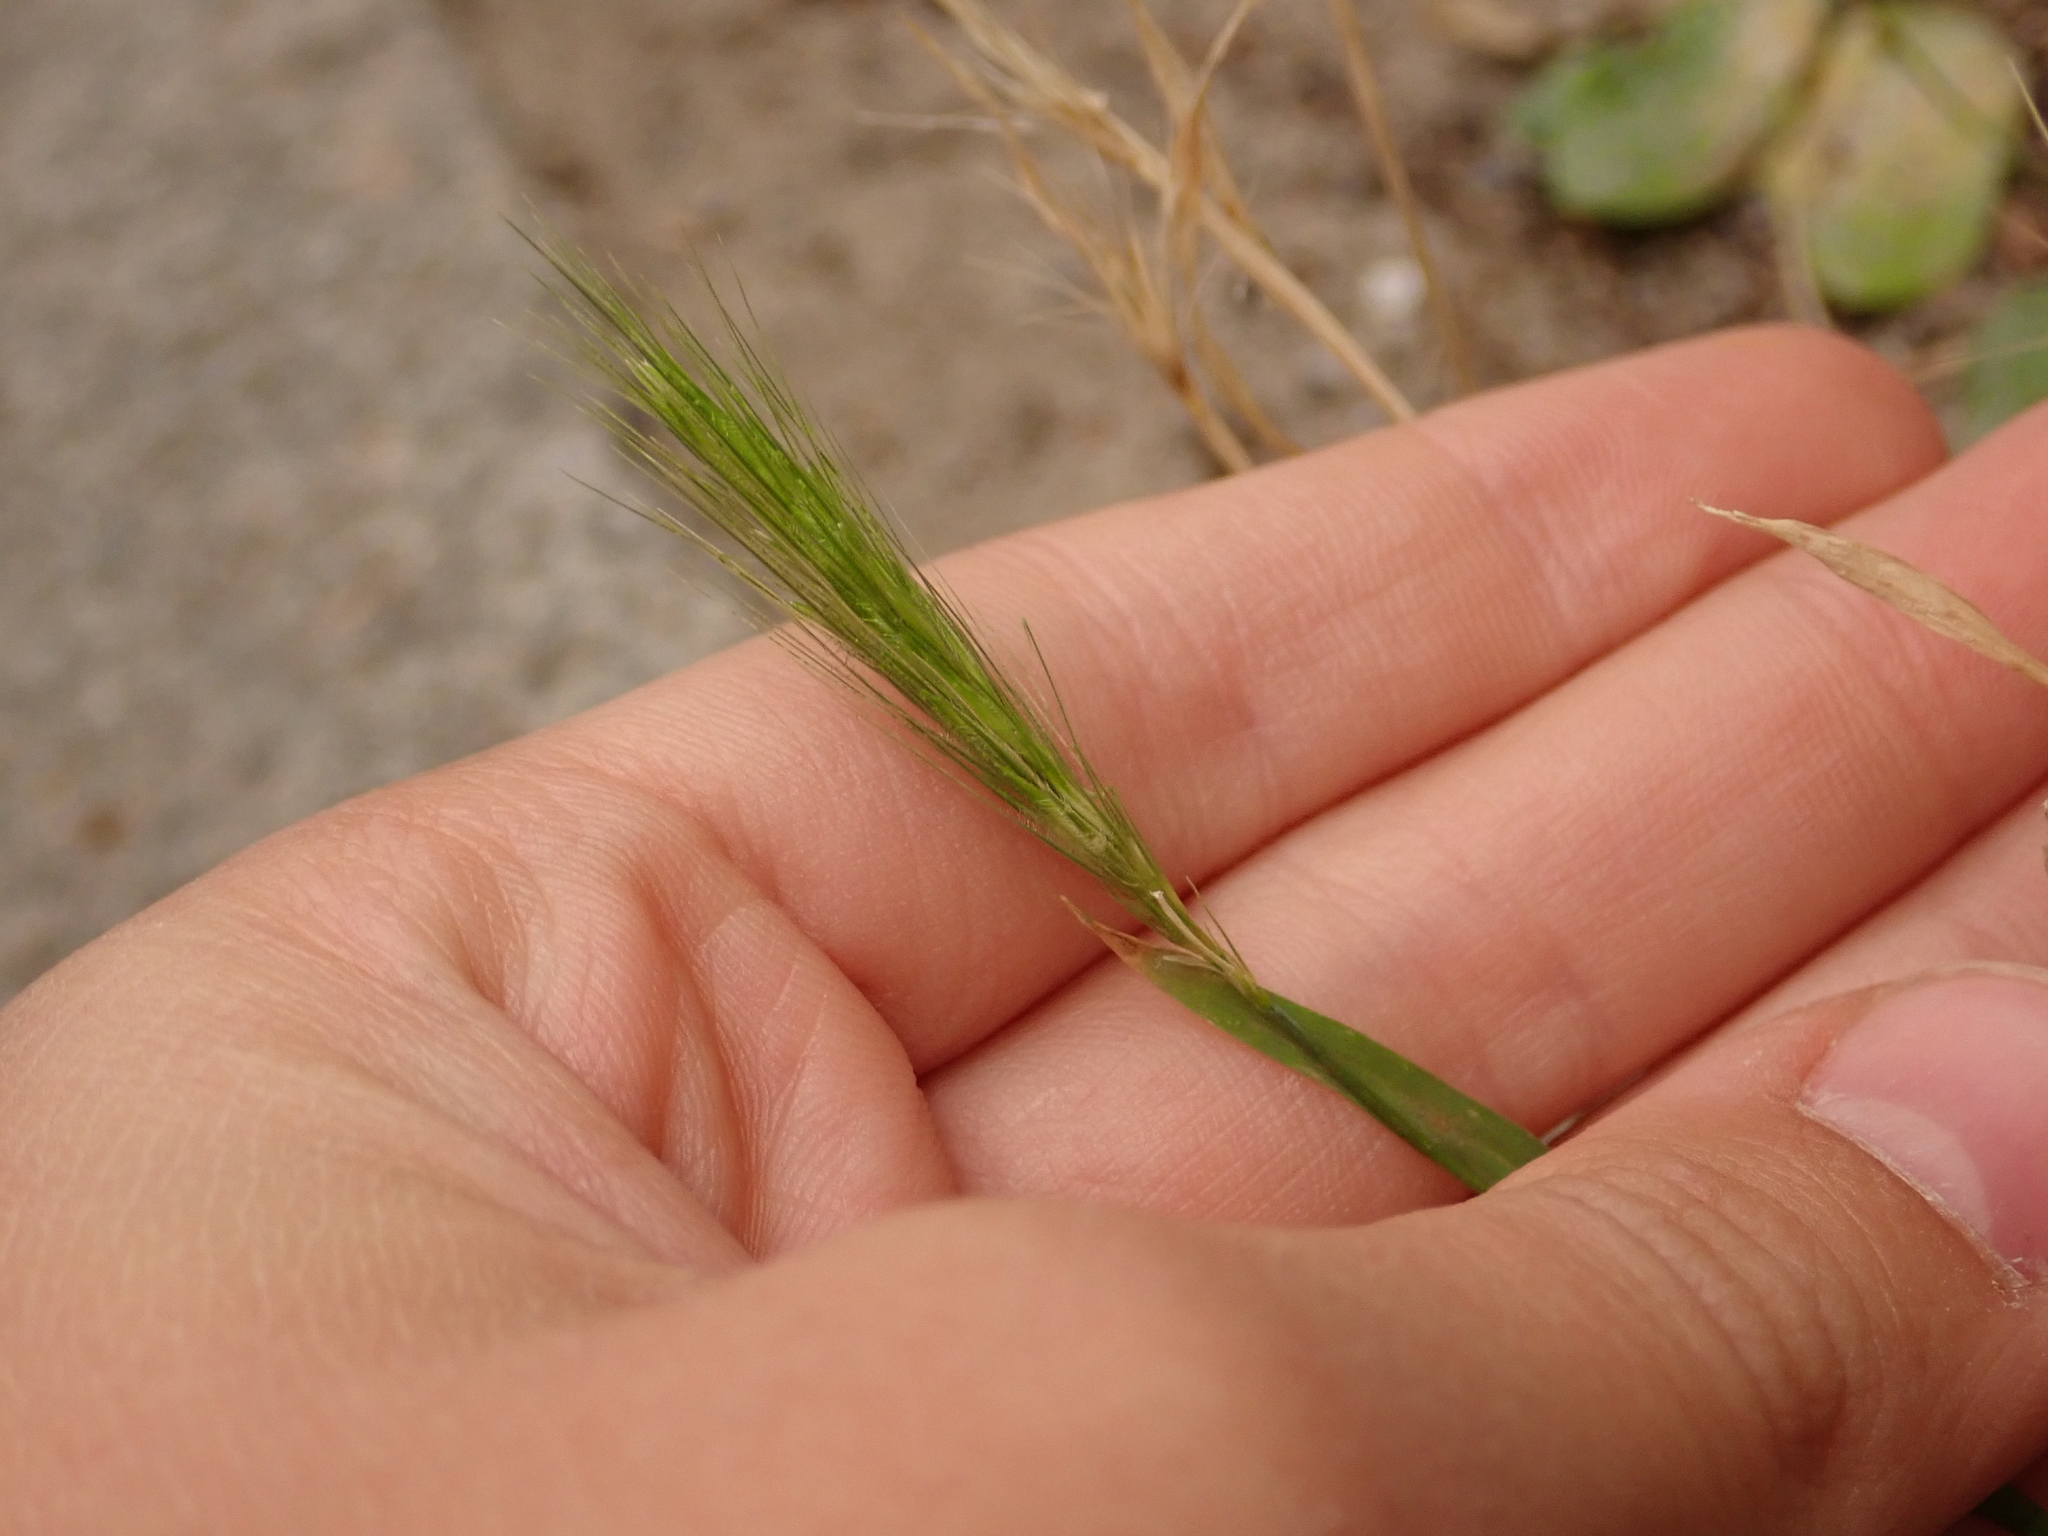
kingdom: Plantae
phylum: Tracheophyta
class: Liliopsida
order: Poales
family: Poaceae
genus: Hordeum
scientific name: Hordeum murinum
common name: Wall barley
